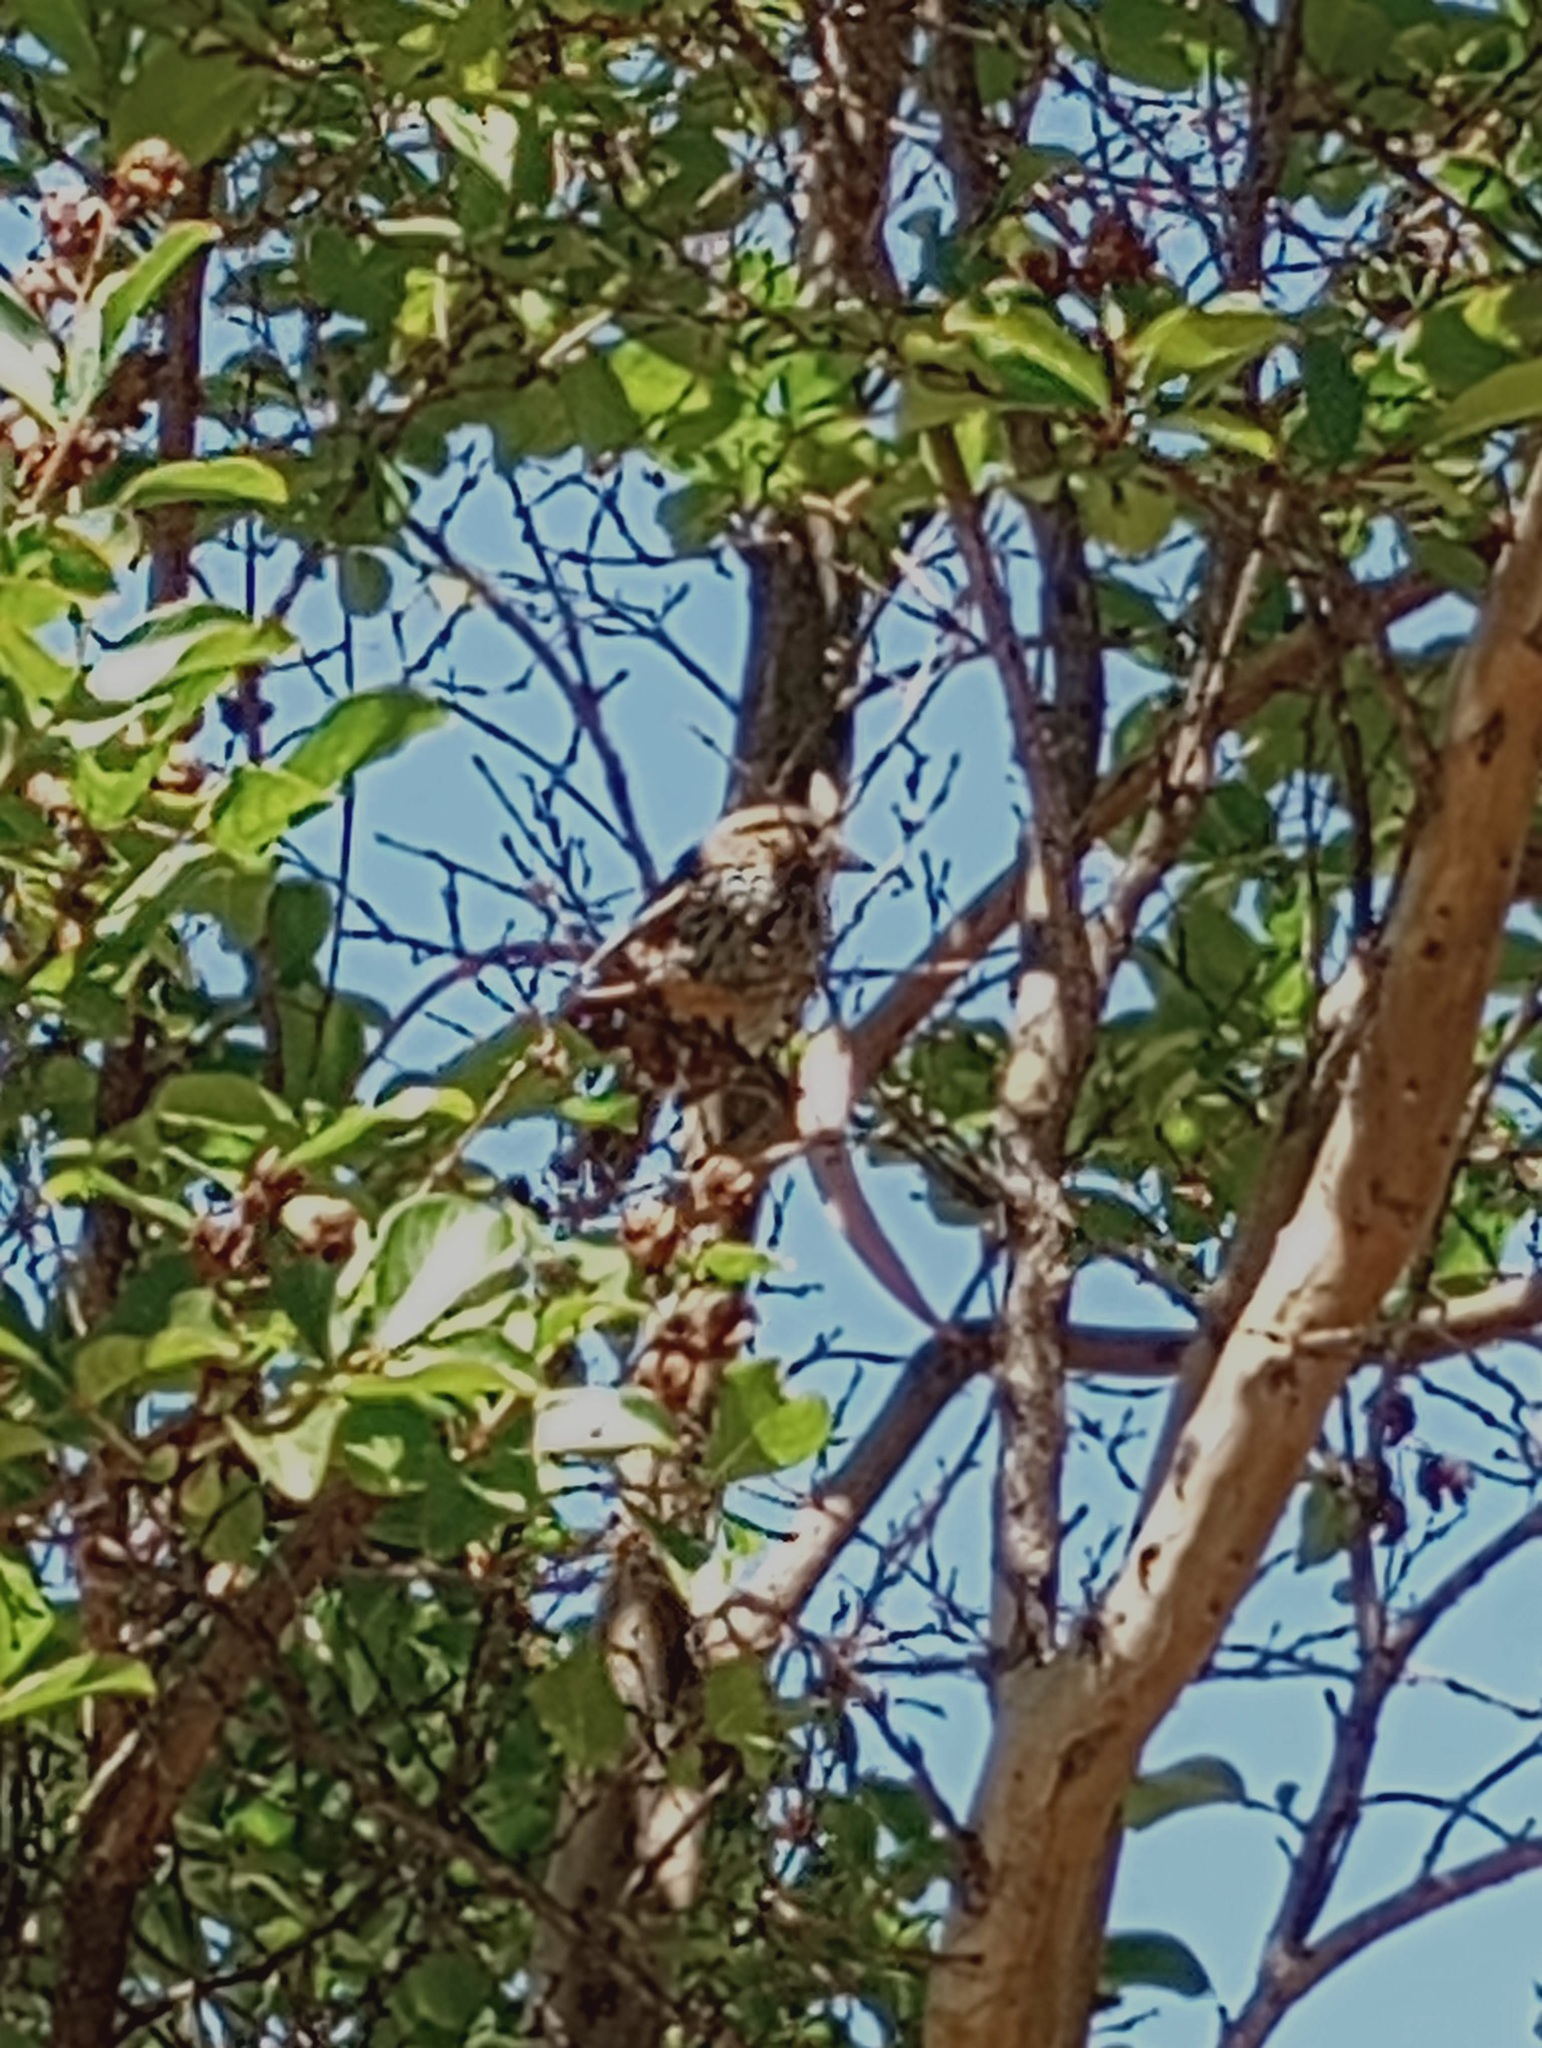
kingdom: Animalia
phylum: Chordata
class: Aves
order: Passeriformes
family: Passerellidae
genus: Melospiza
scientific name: Melospiza melodia
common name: Song sparrow
